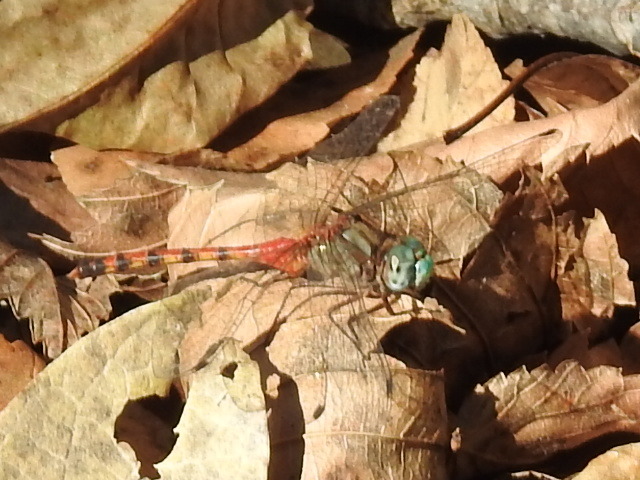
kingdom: Animalia
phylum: Arthropoda
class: Insecta
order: Odonata
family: Libellulidae
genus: Sympetrum
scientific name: Sympetrum ambiguum
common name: Blue-faced meadowhawk
